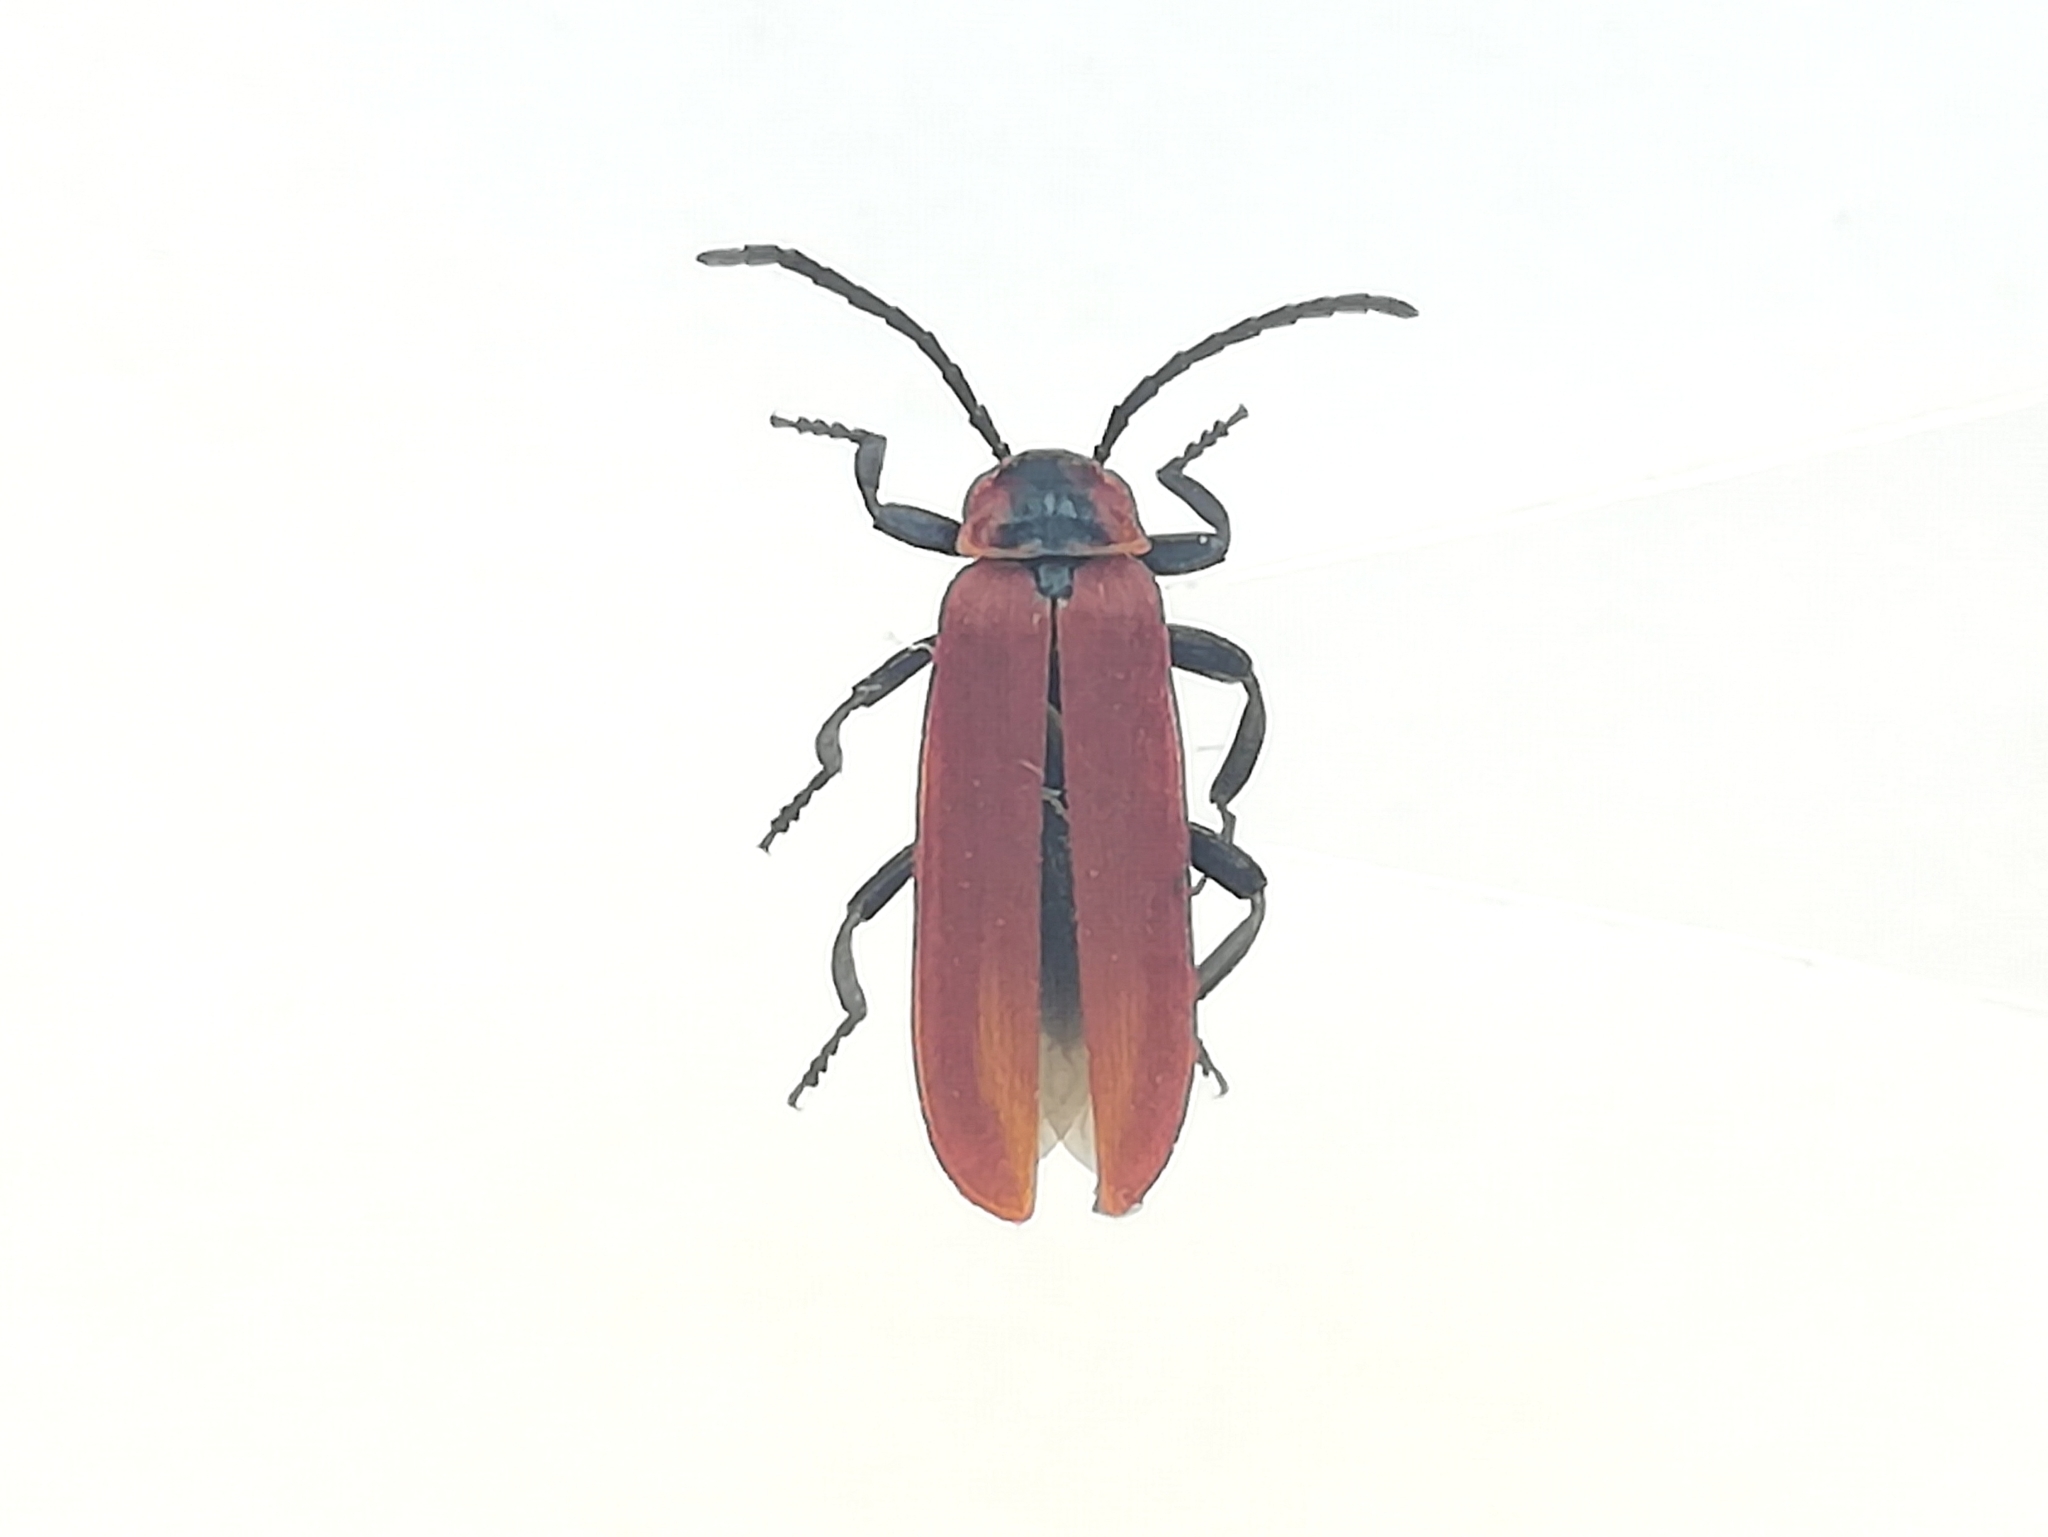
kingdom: Animalia
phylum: Arthropoda
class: Insecta
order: Coleoptera
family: Lycidae
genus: Lygistopterus
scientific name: Lygistopterus sanguineus
